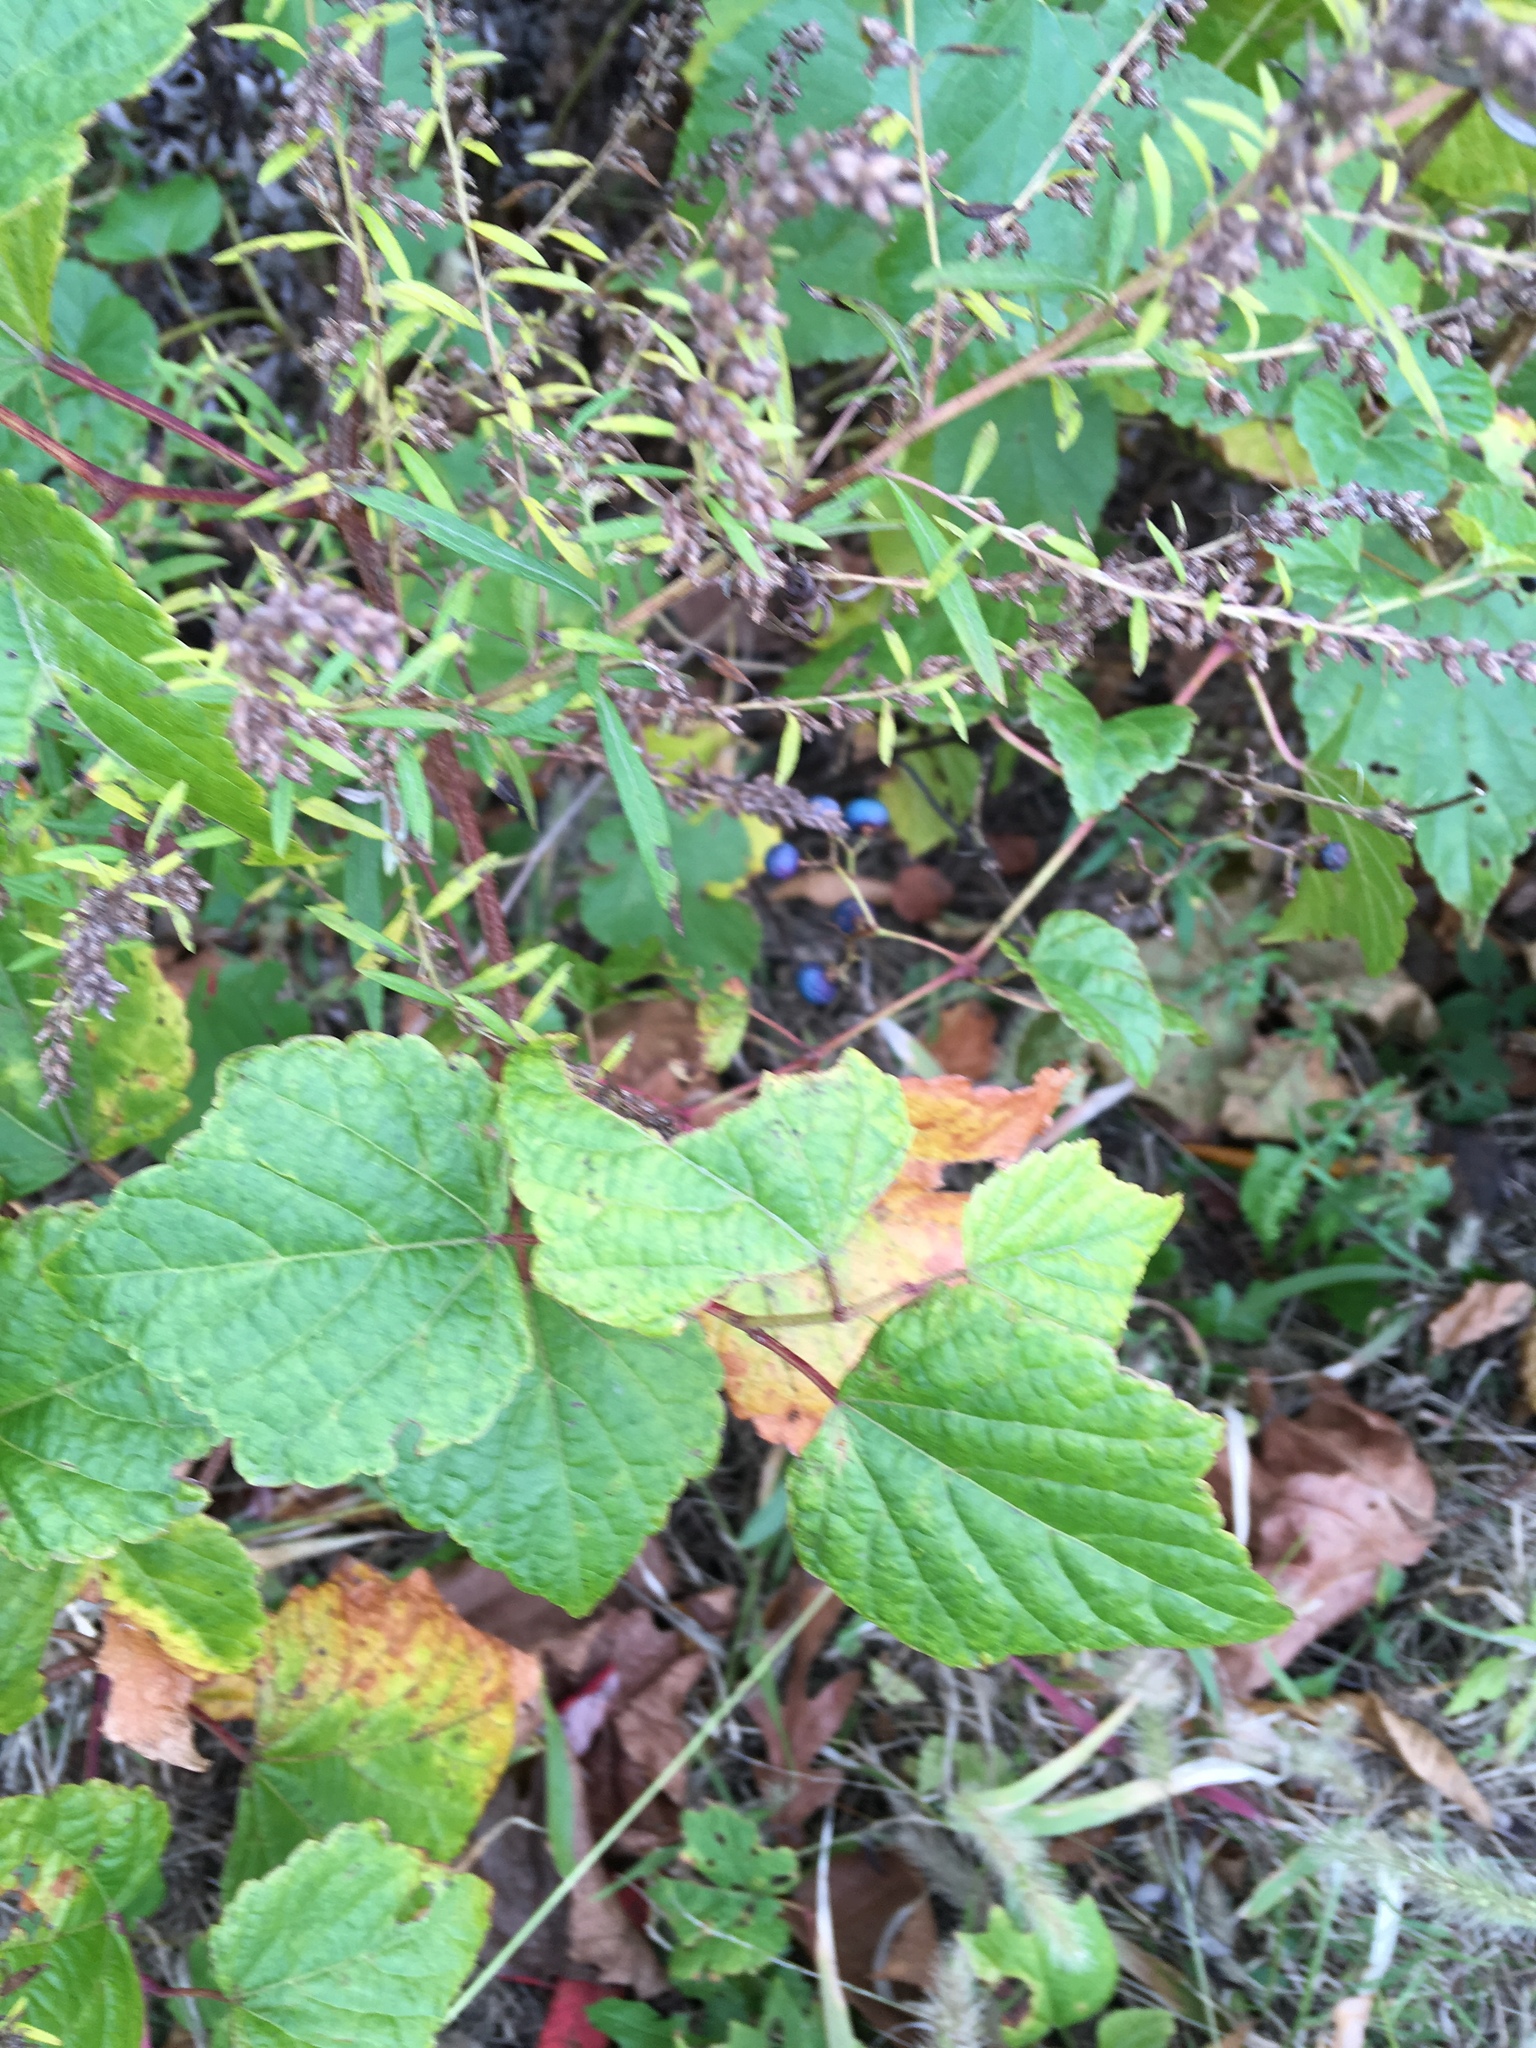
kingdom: Plantae
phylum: Tracheophyta
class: Magnoliopsida
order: Vitales
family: Vitaceae
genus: Ampelopsis
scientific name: Ampelopsis glandulosa
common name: Amur peppervine
